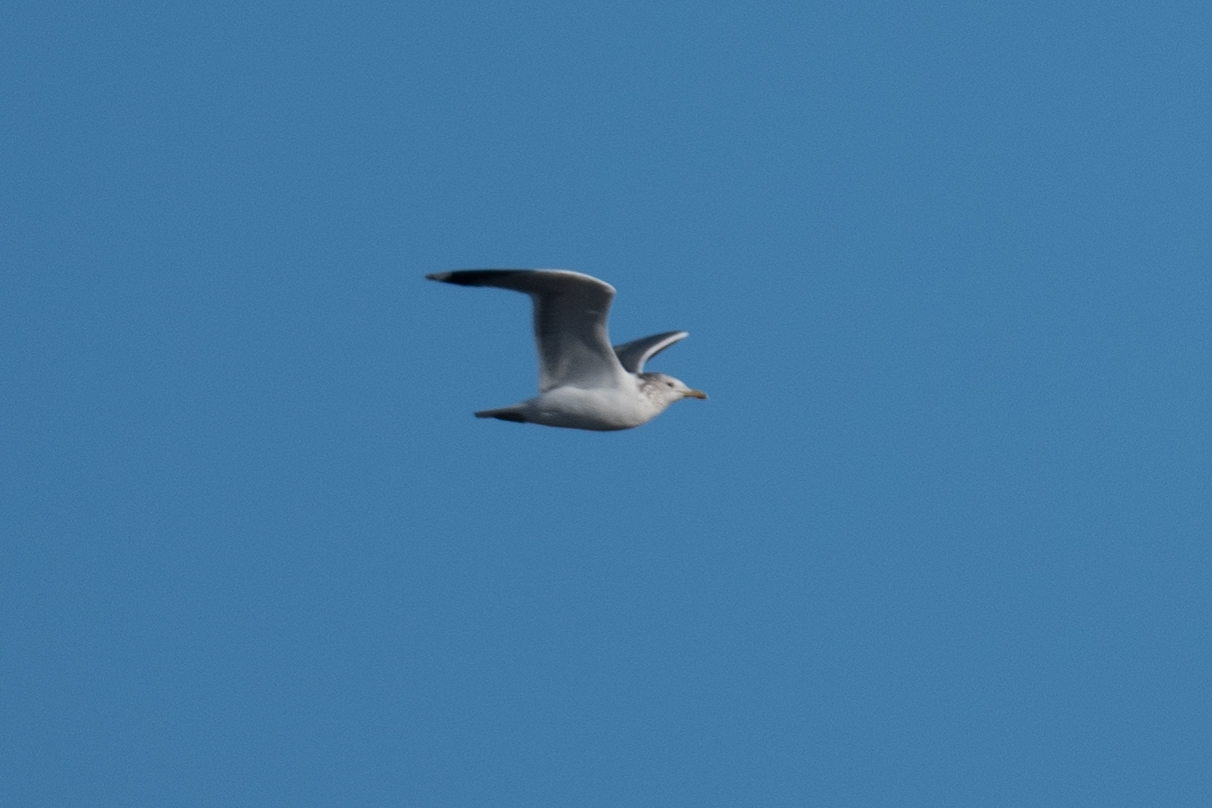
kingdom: Animalia
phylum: Chordata
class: Aves
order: Charadriiformes
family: Laridae
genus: Larus
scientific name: Larus californicus
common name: California gull
